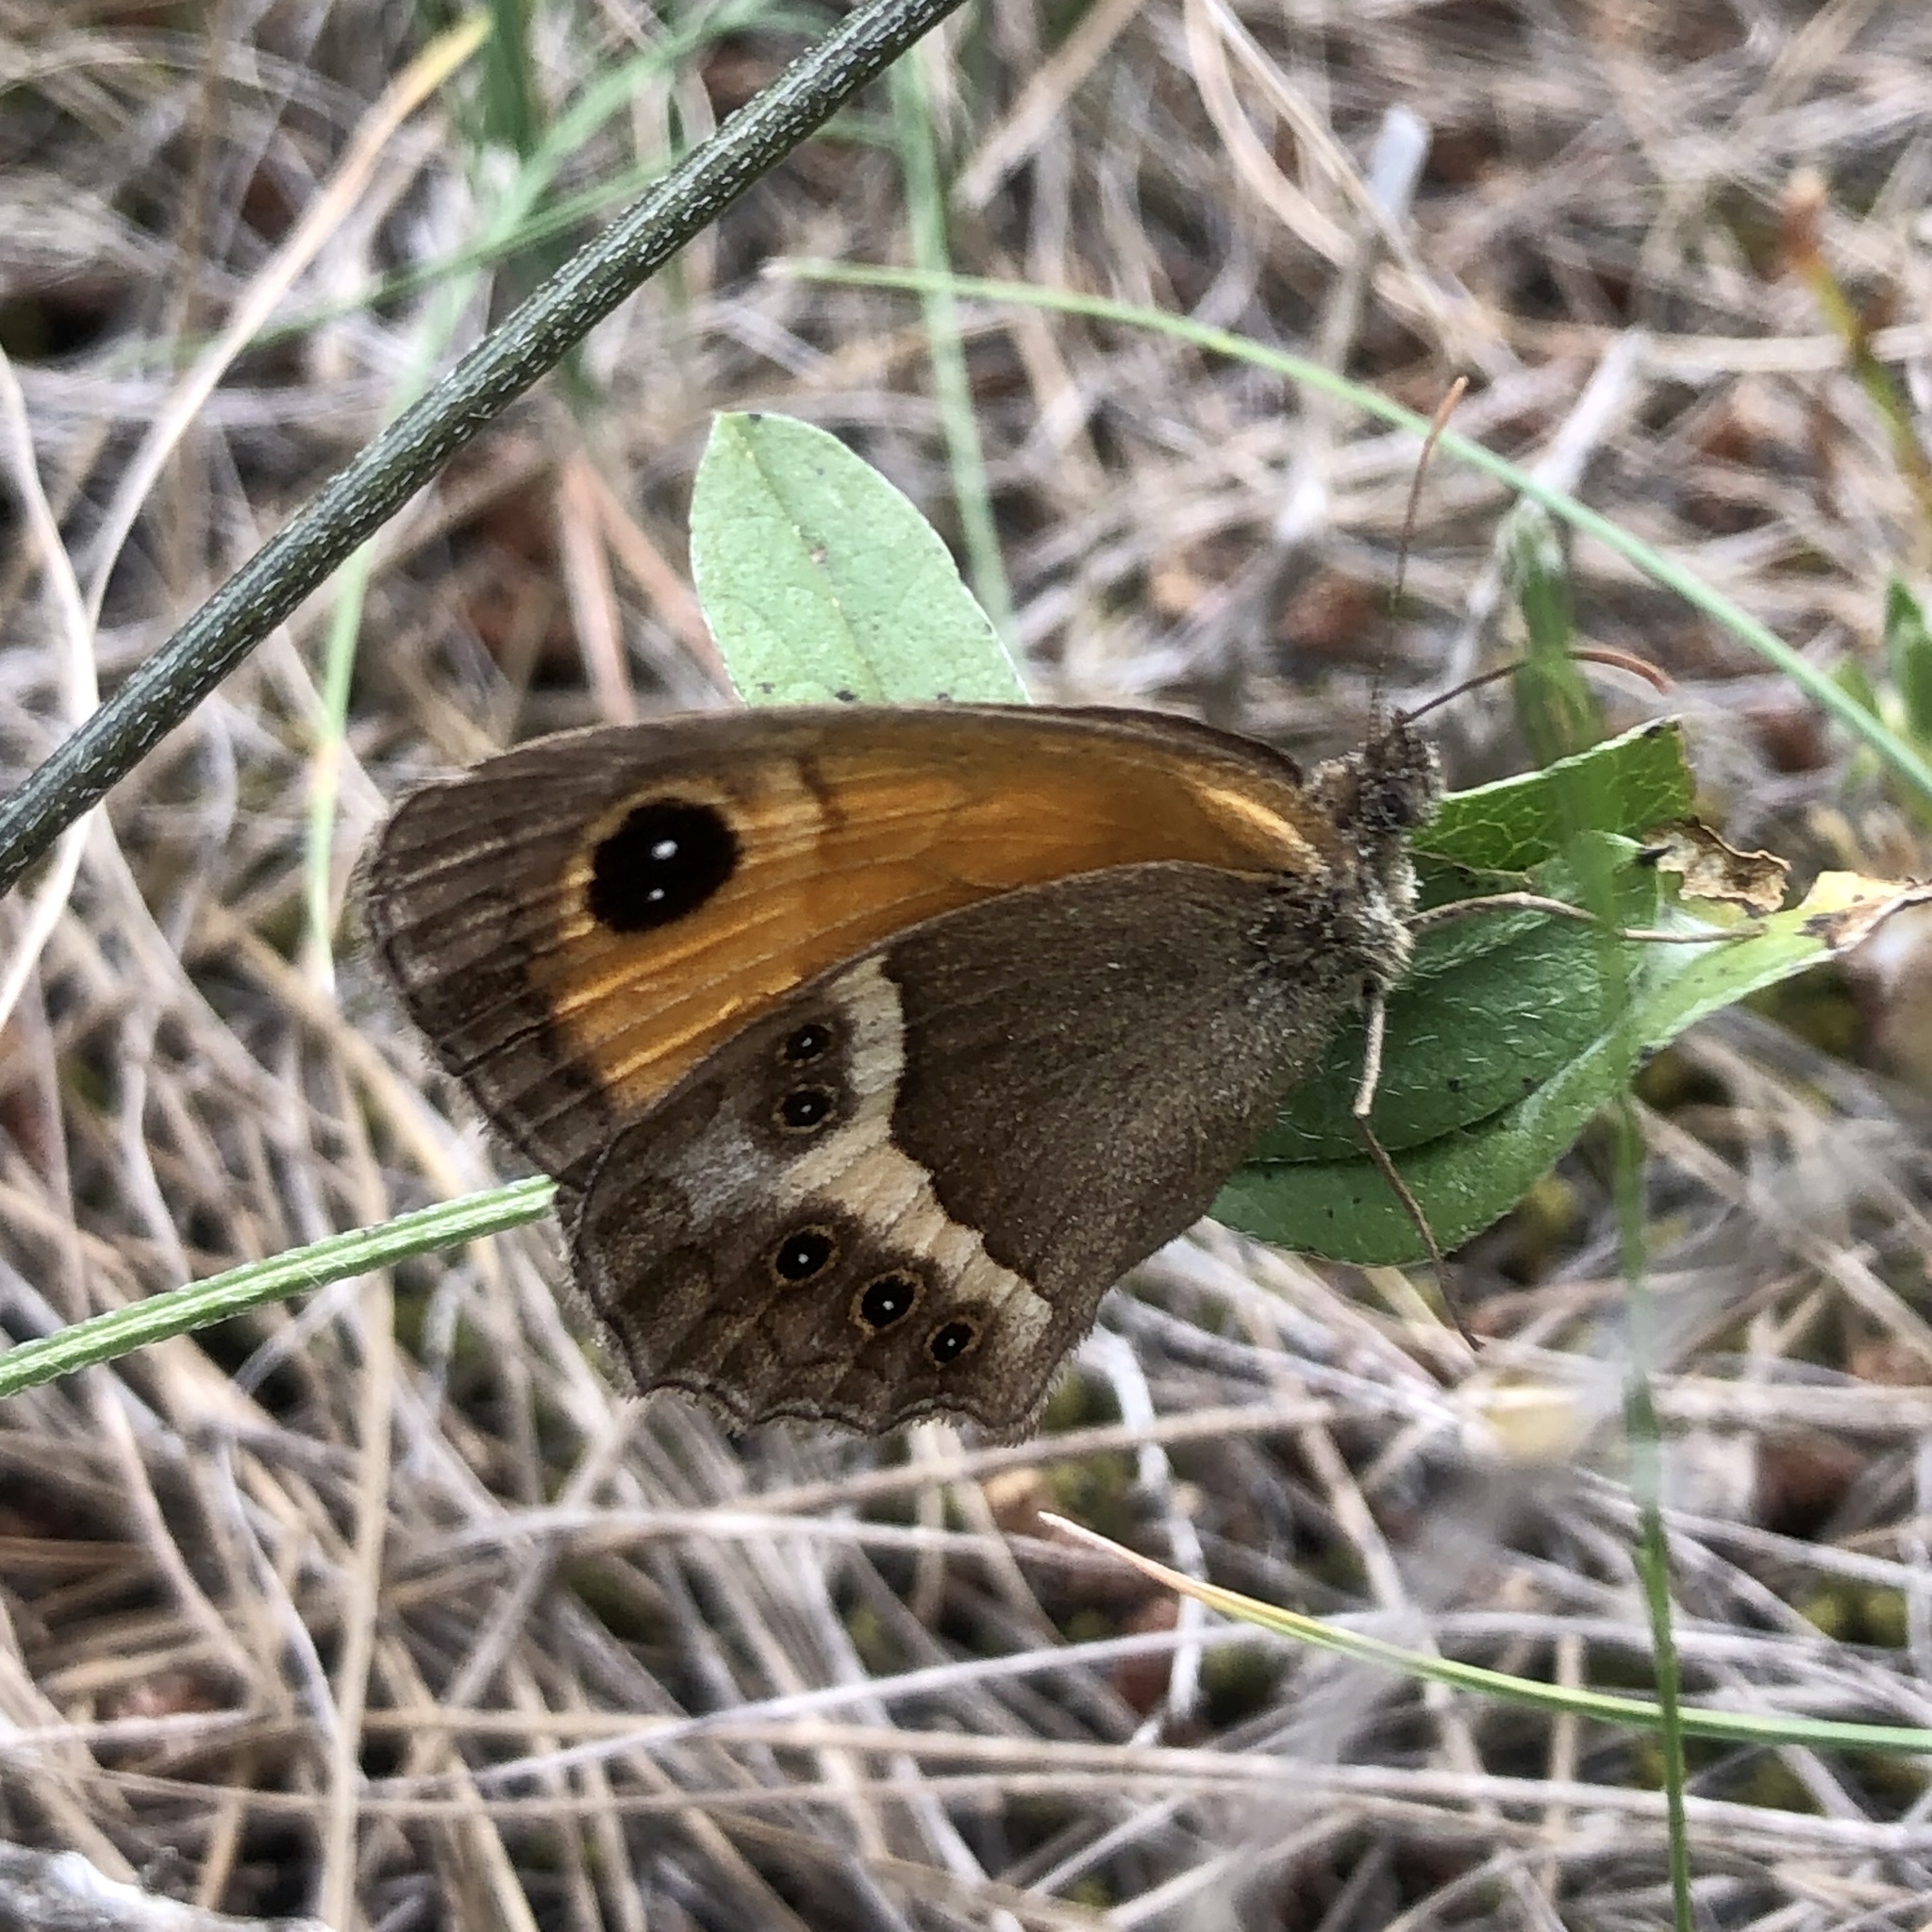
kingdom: Animalia
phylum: Arthropoda
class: Insecta
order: Lepidoptera
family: Nymphalidae
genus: Pyronia
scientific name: Pyronia bathseba
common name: Spanish gatekeeper
